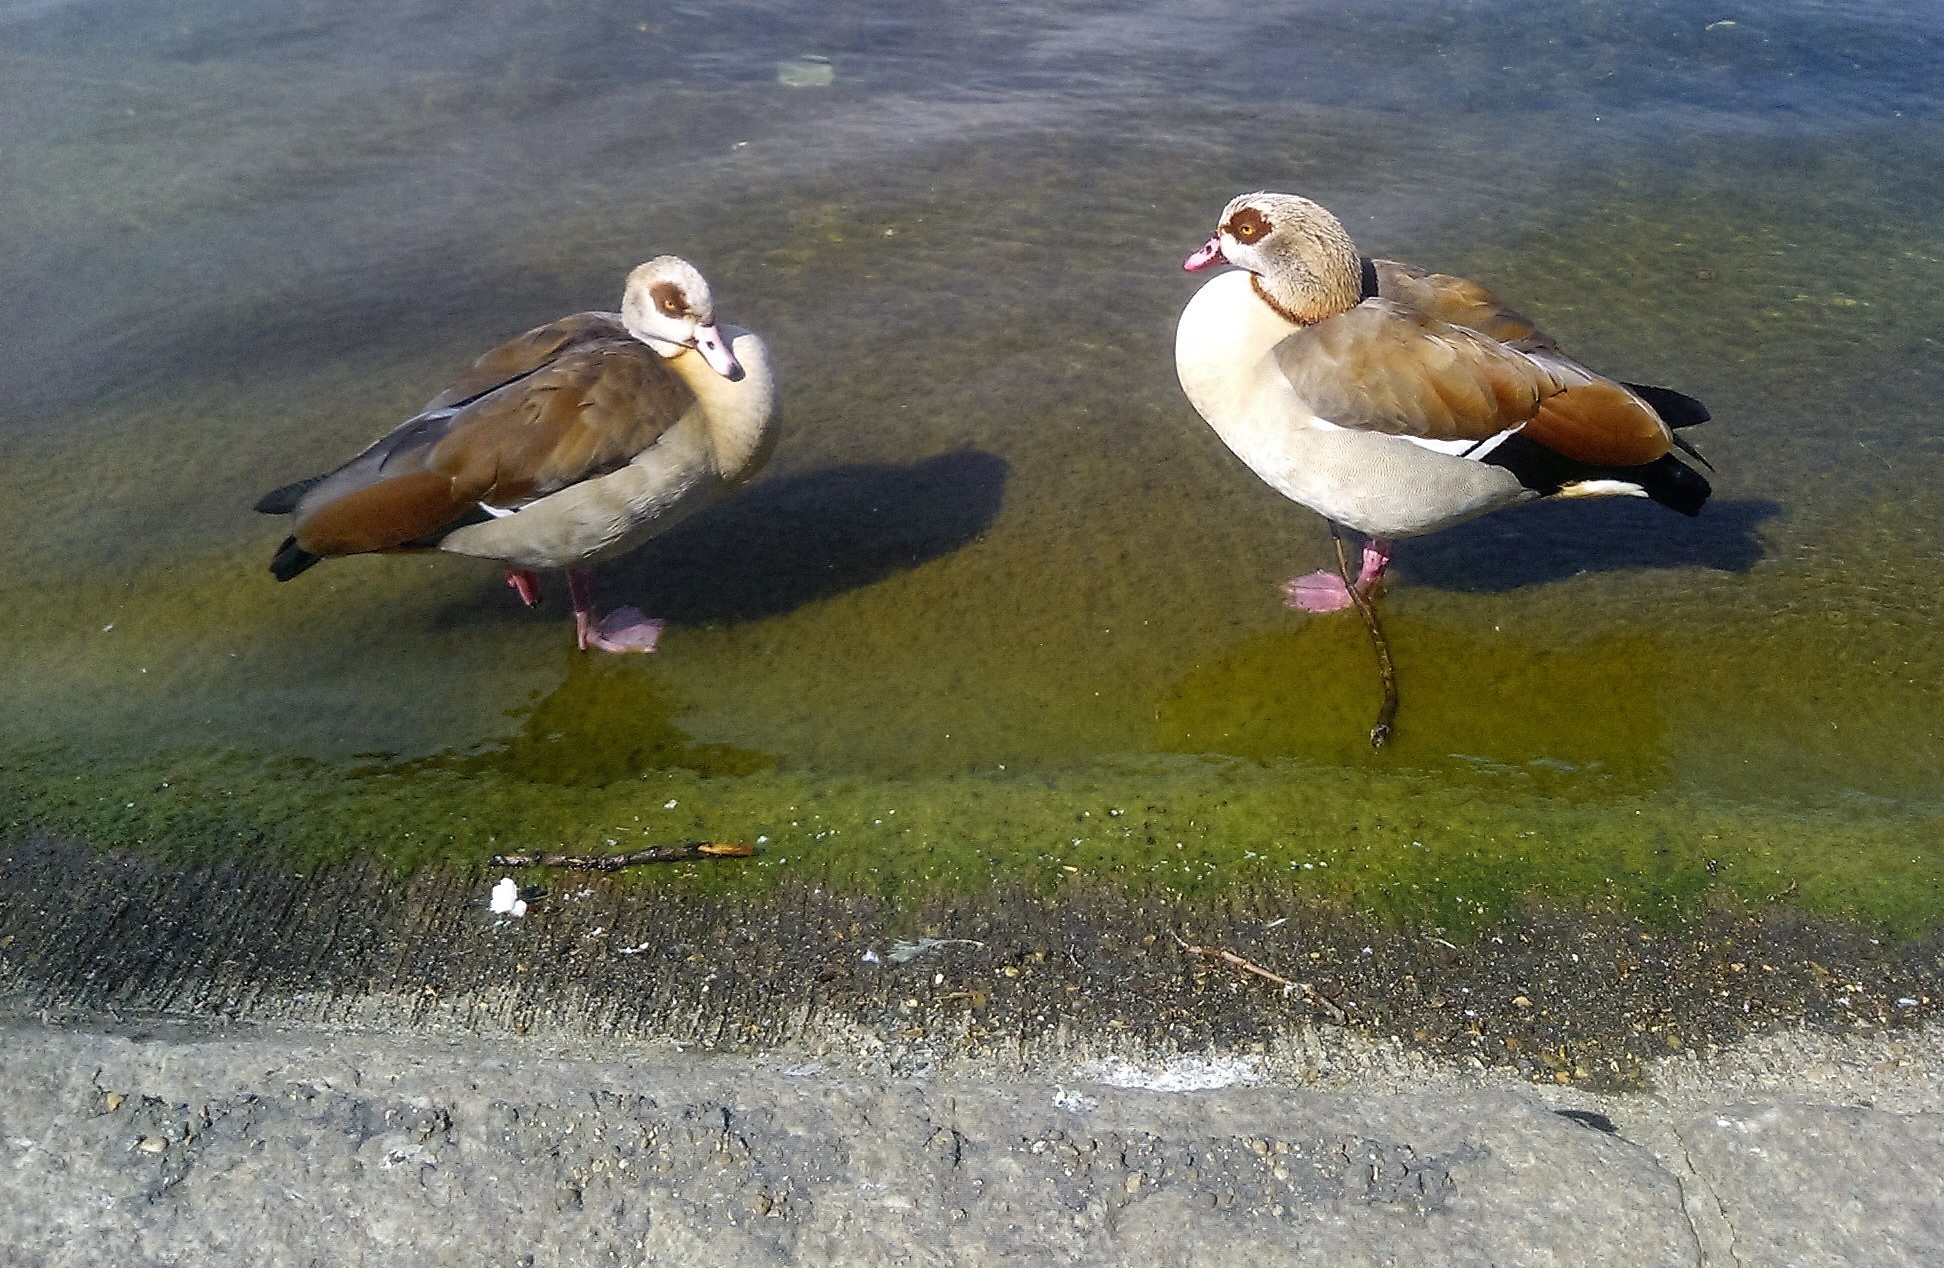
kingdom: Animalia
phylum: Chordata
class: Aves
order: Anseriformes
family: Anatidae
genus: Alopochen
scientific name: Alopochen aegyptiaca
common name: Egyptian goose
